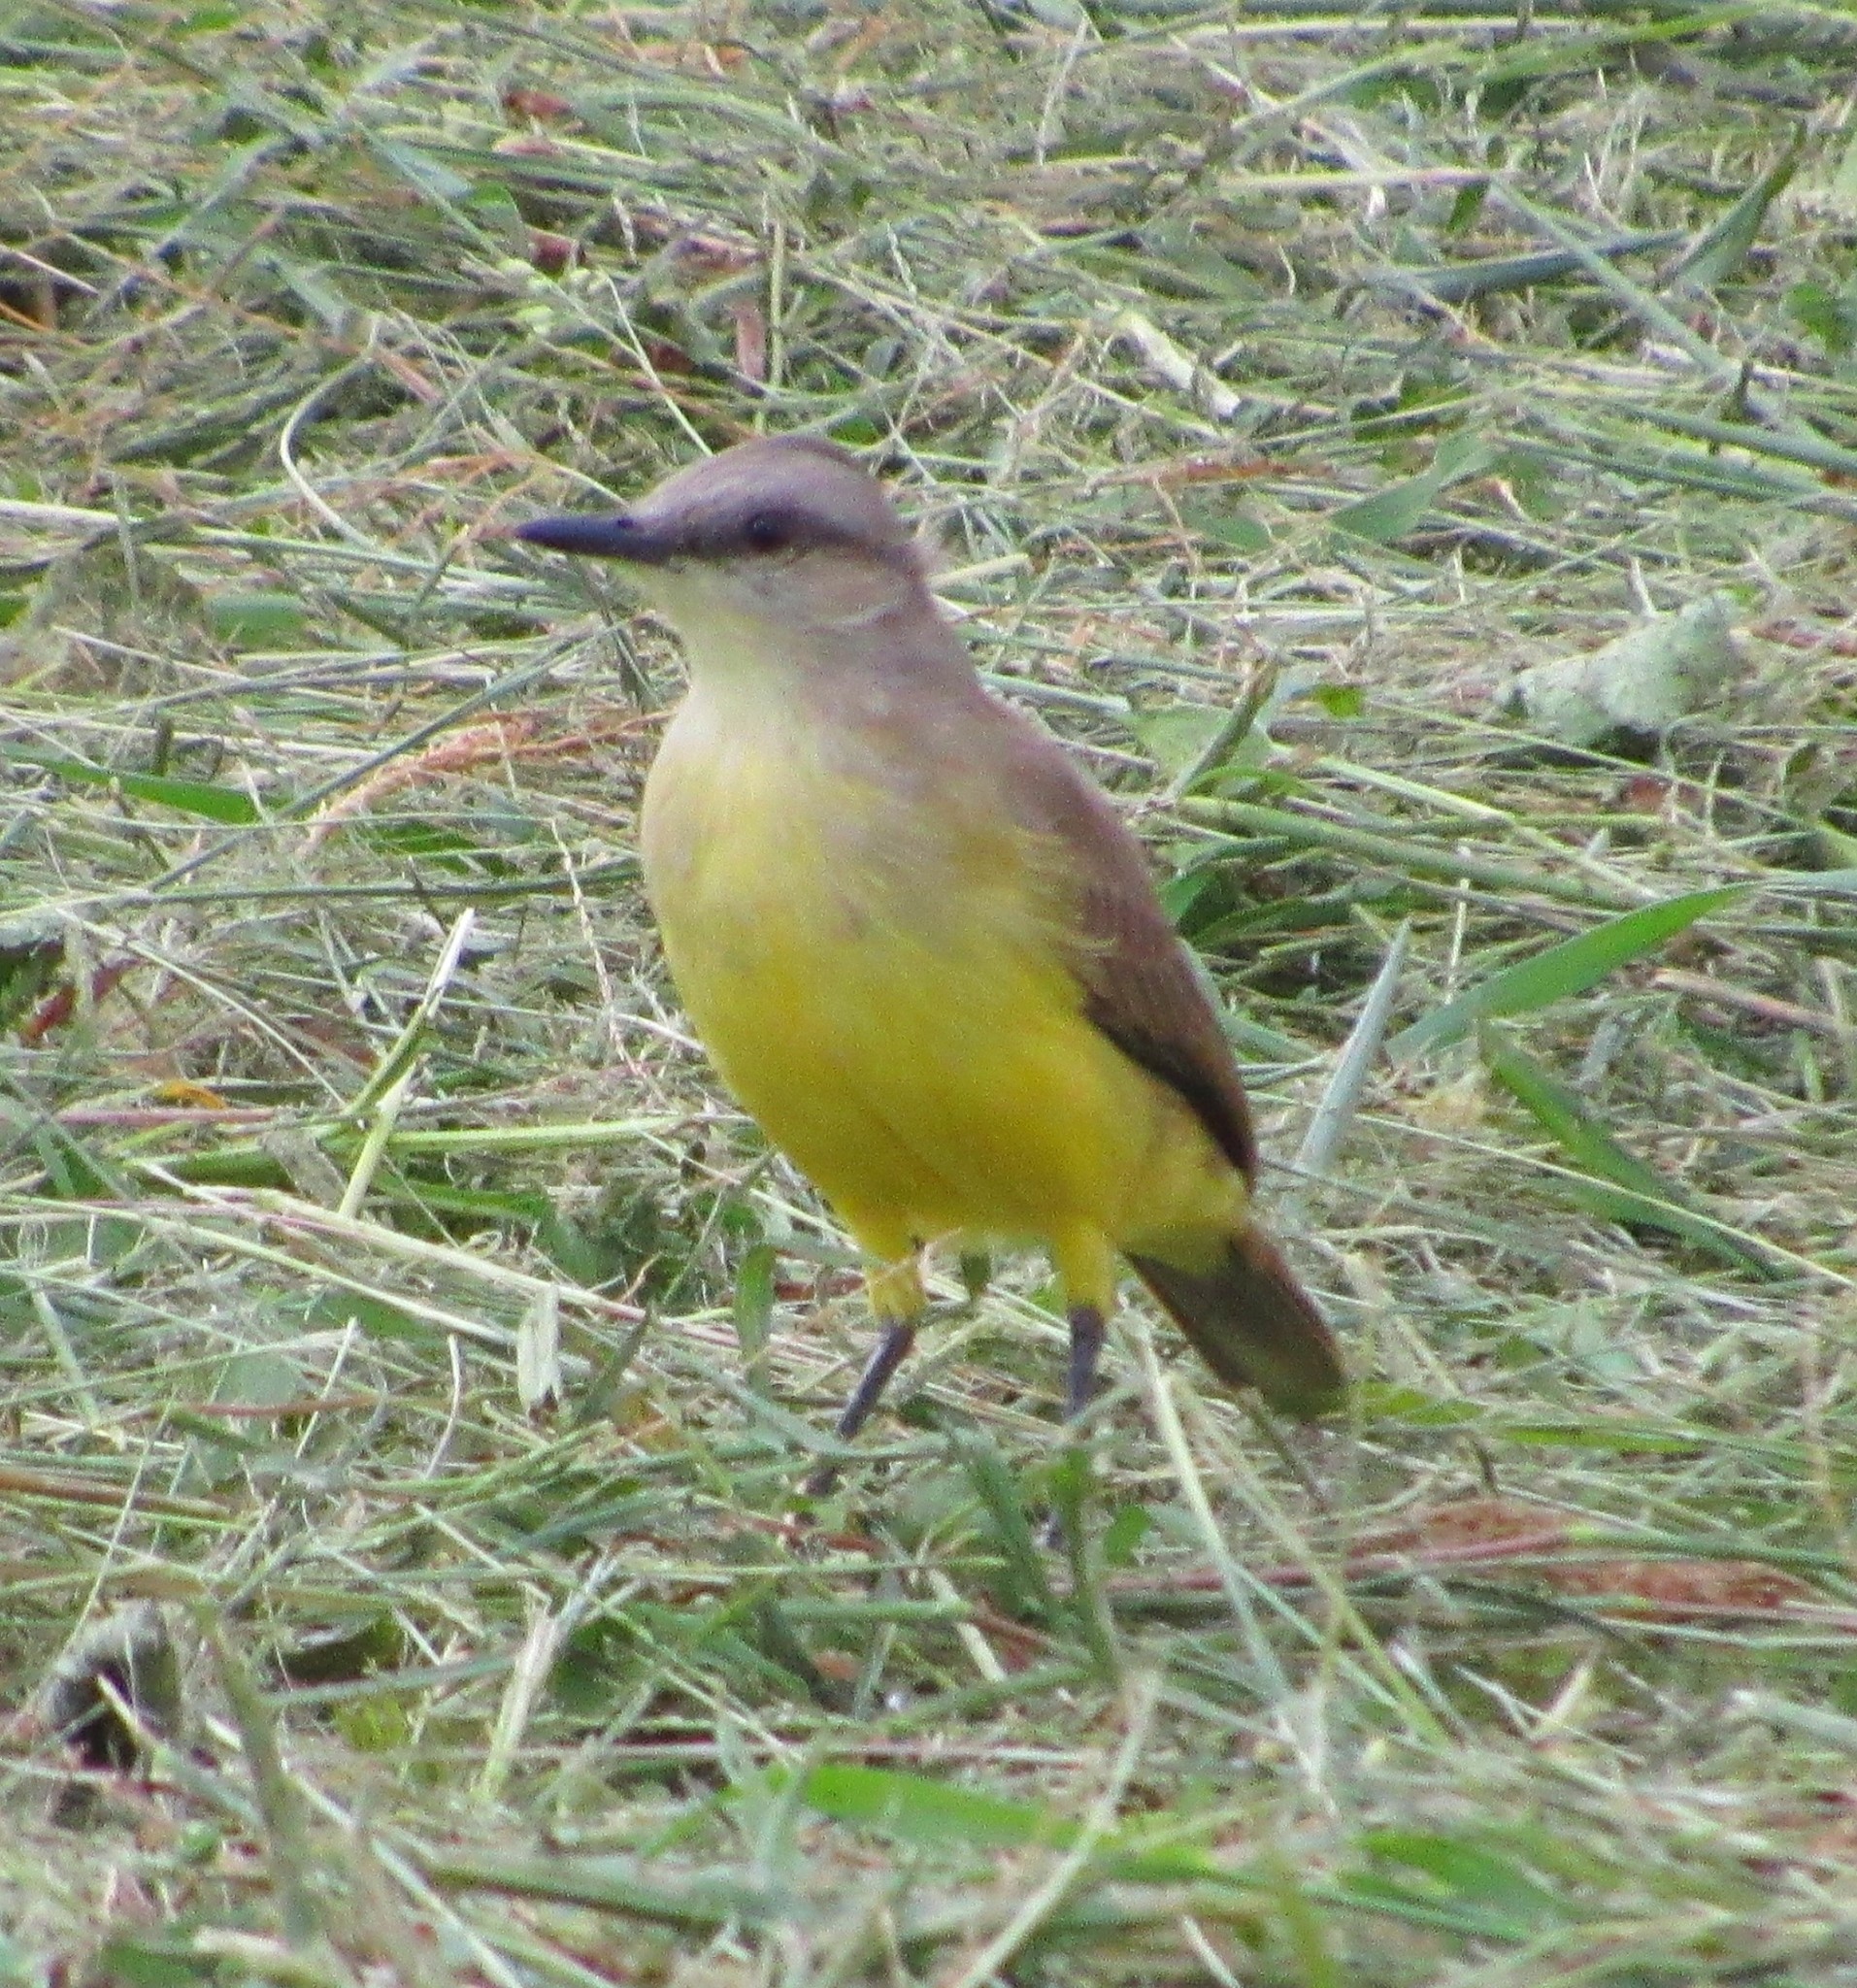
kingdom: Animalia
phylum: Chordata
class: Aves
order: Passeriformes
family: Tyrannidae
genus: Machetornis
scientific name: Machetornis rixosa
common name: Cattle tyrant
